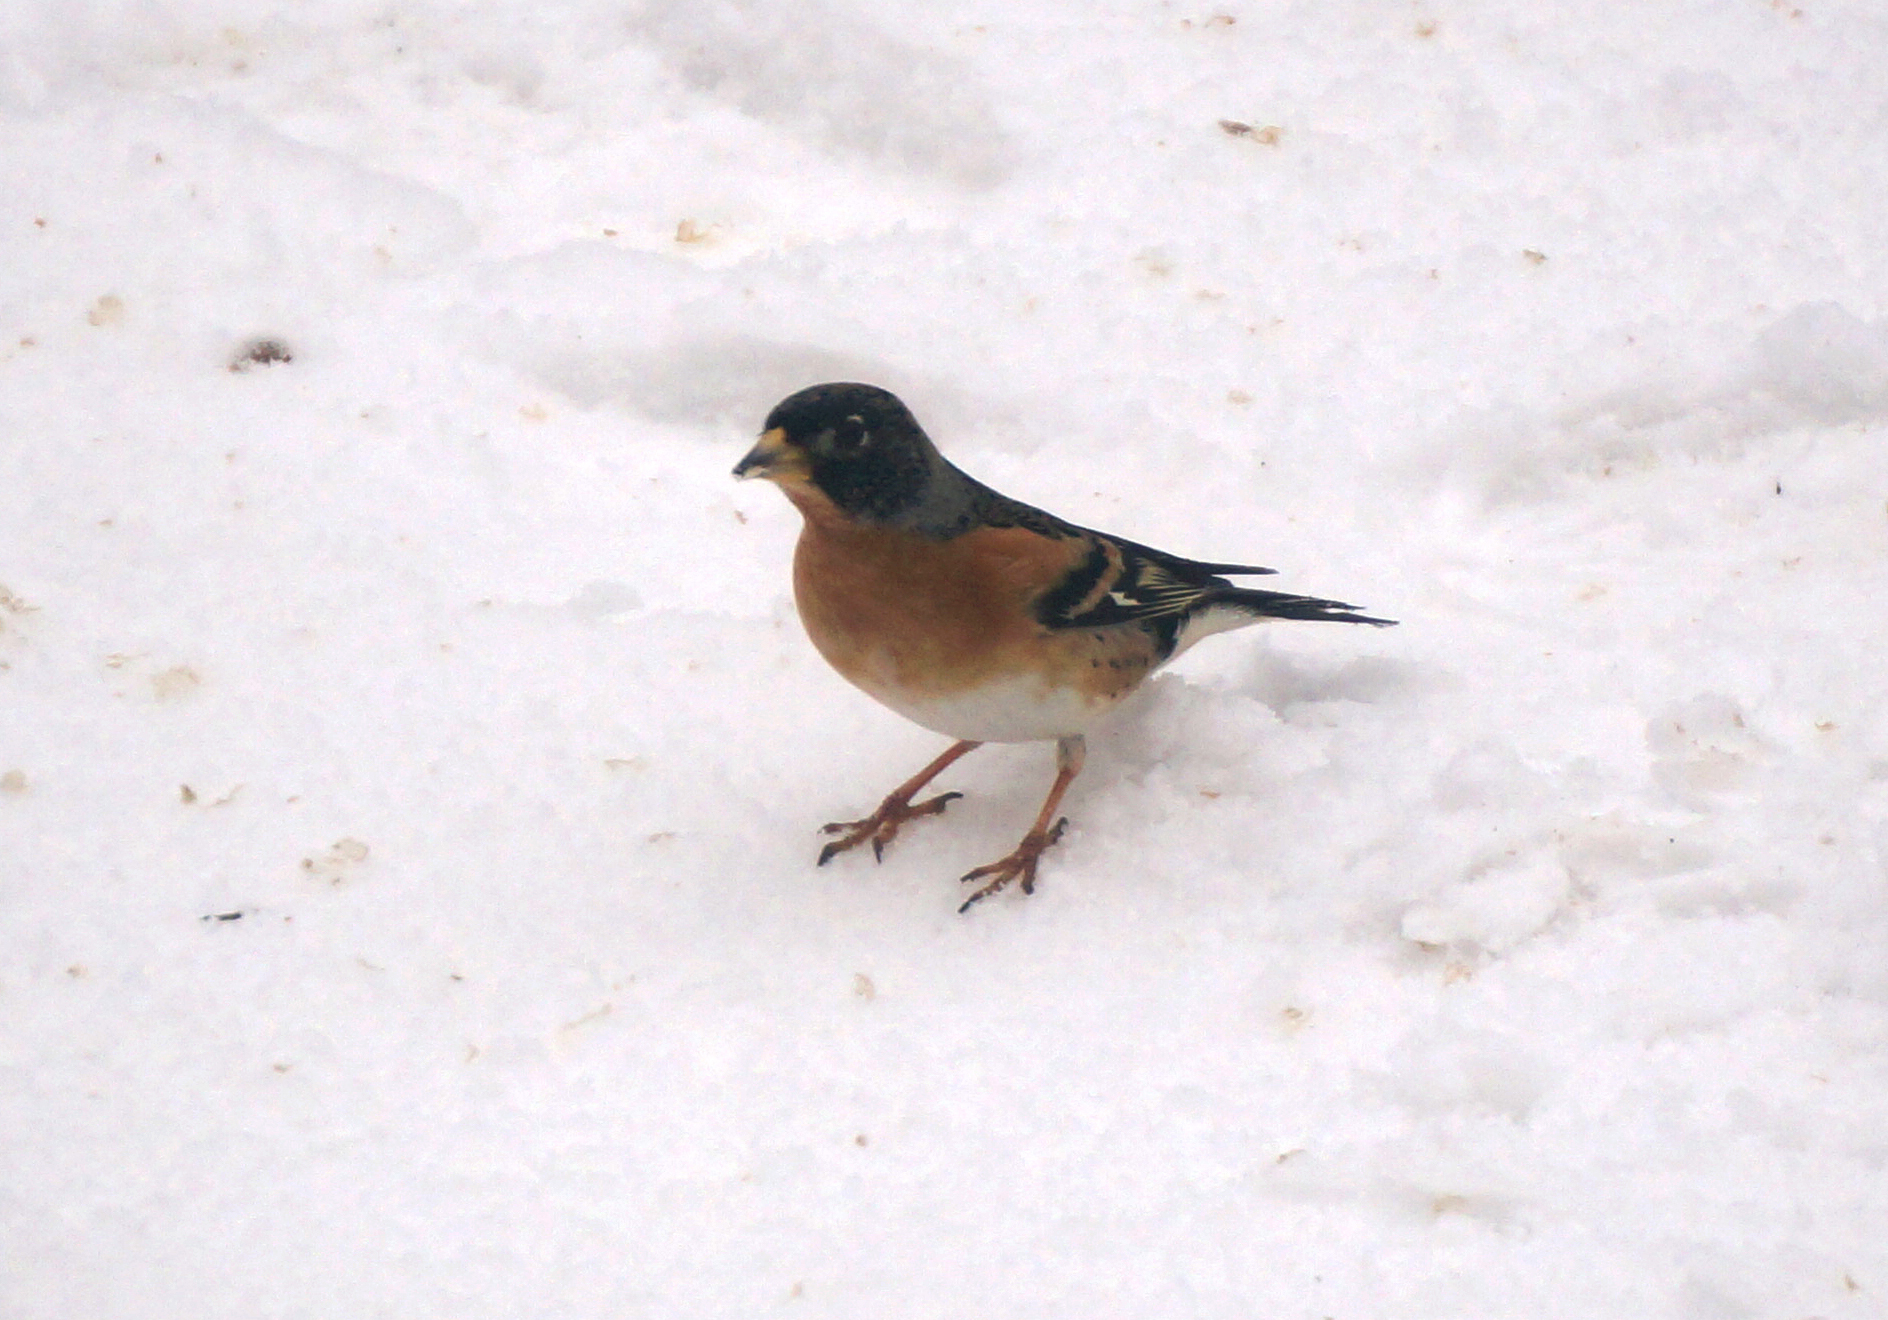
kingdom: Animalia
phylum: Chordata
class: Aves
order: Passeriformes
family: Fringillidae
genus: Fringilla
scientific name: Fringilla montifringilla
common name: Brambling
